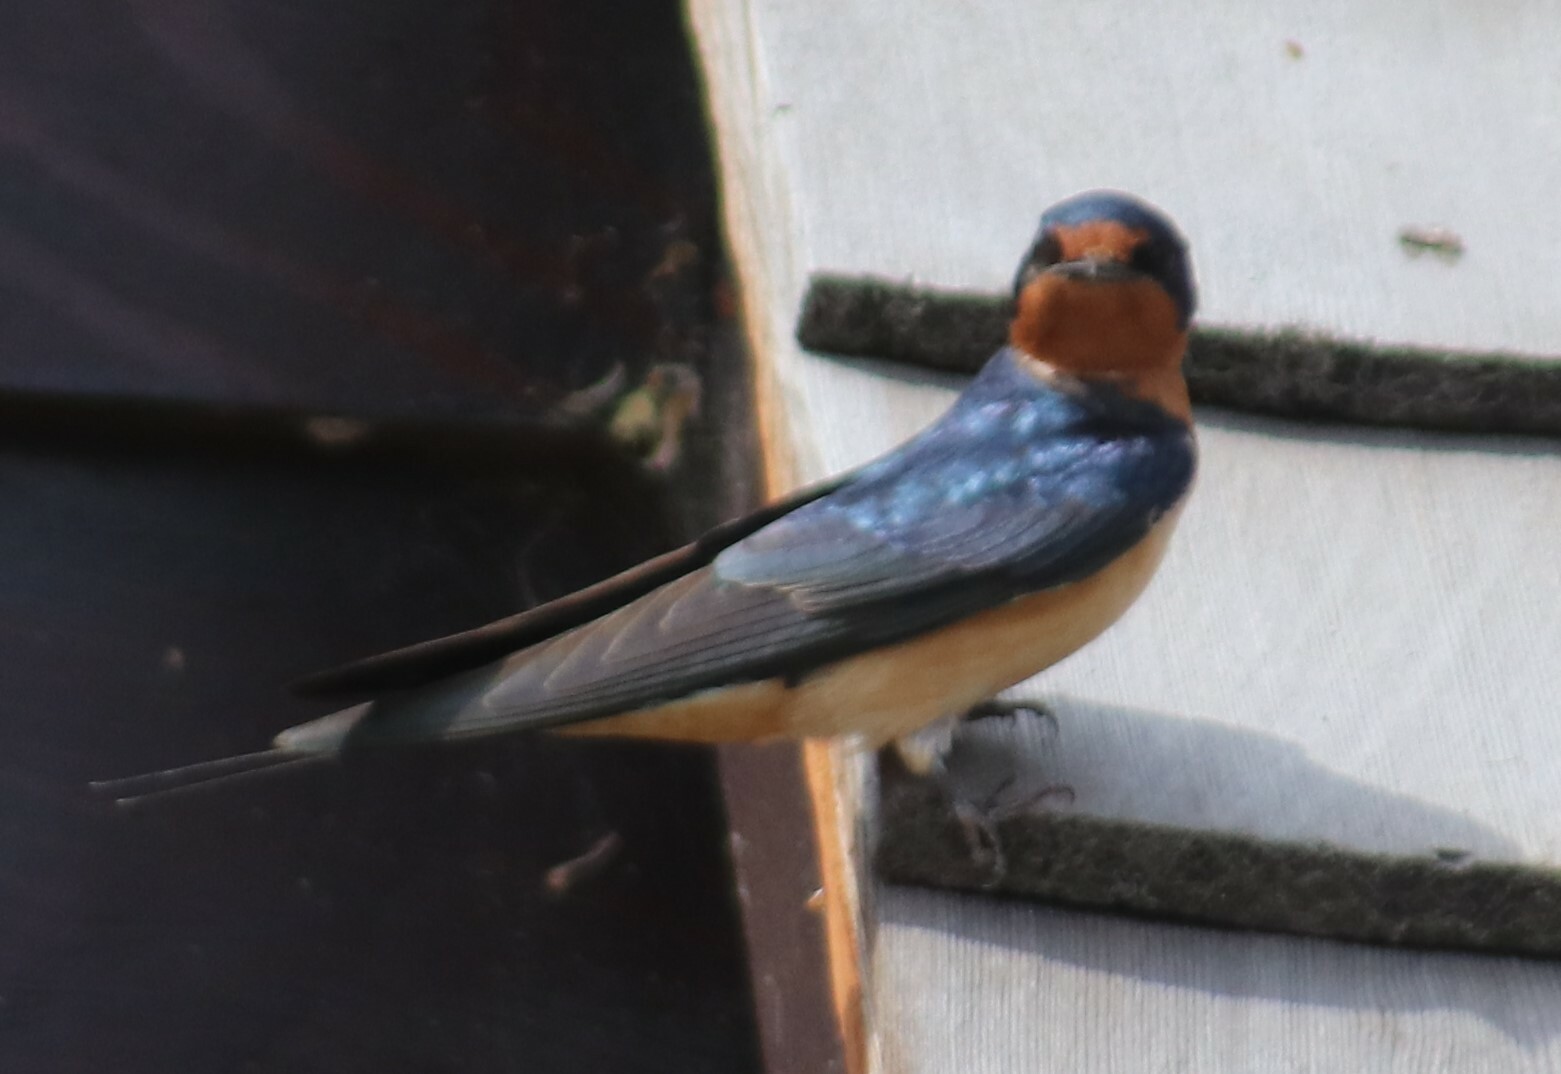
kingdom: Animalia
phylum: Chordata
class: Aves
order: Passeriformes
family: Hirundinidae
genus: Hirundo
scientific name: Hirundo rustica
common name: Barn swallow
